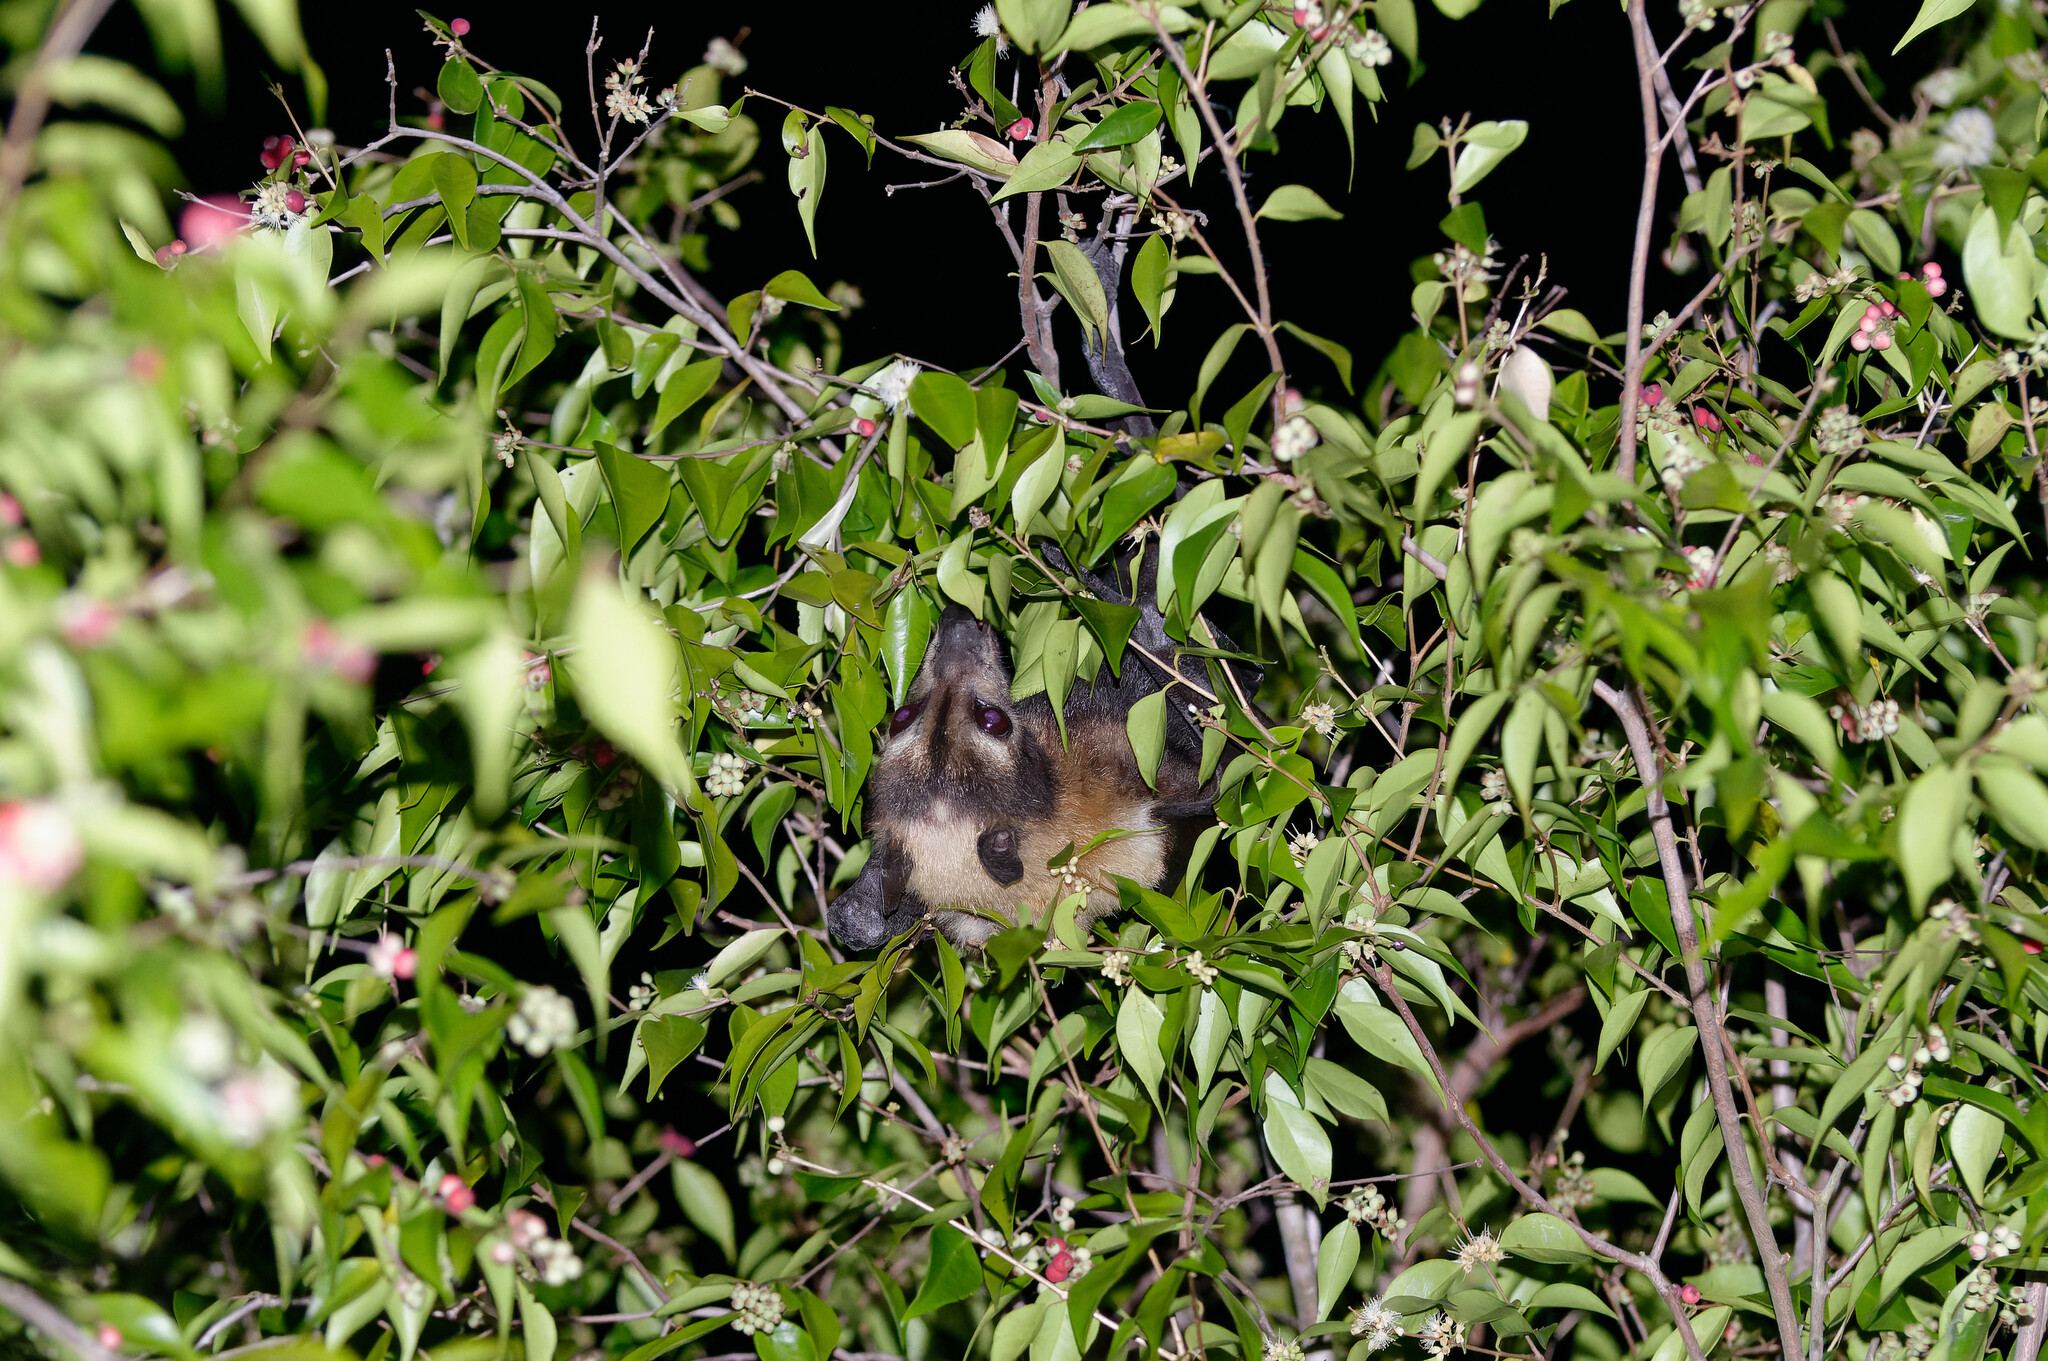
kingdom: Animalia
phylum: Chordata
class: Mammalia
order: Chiroptera
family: Pteropodidae
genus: Pteropus
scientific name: Pteropus conspicillatus
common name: Spectacled flying fox
